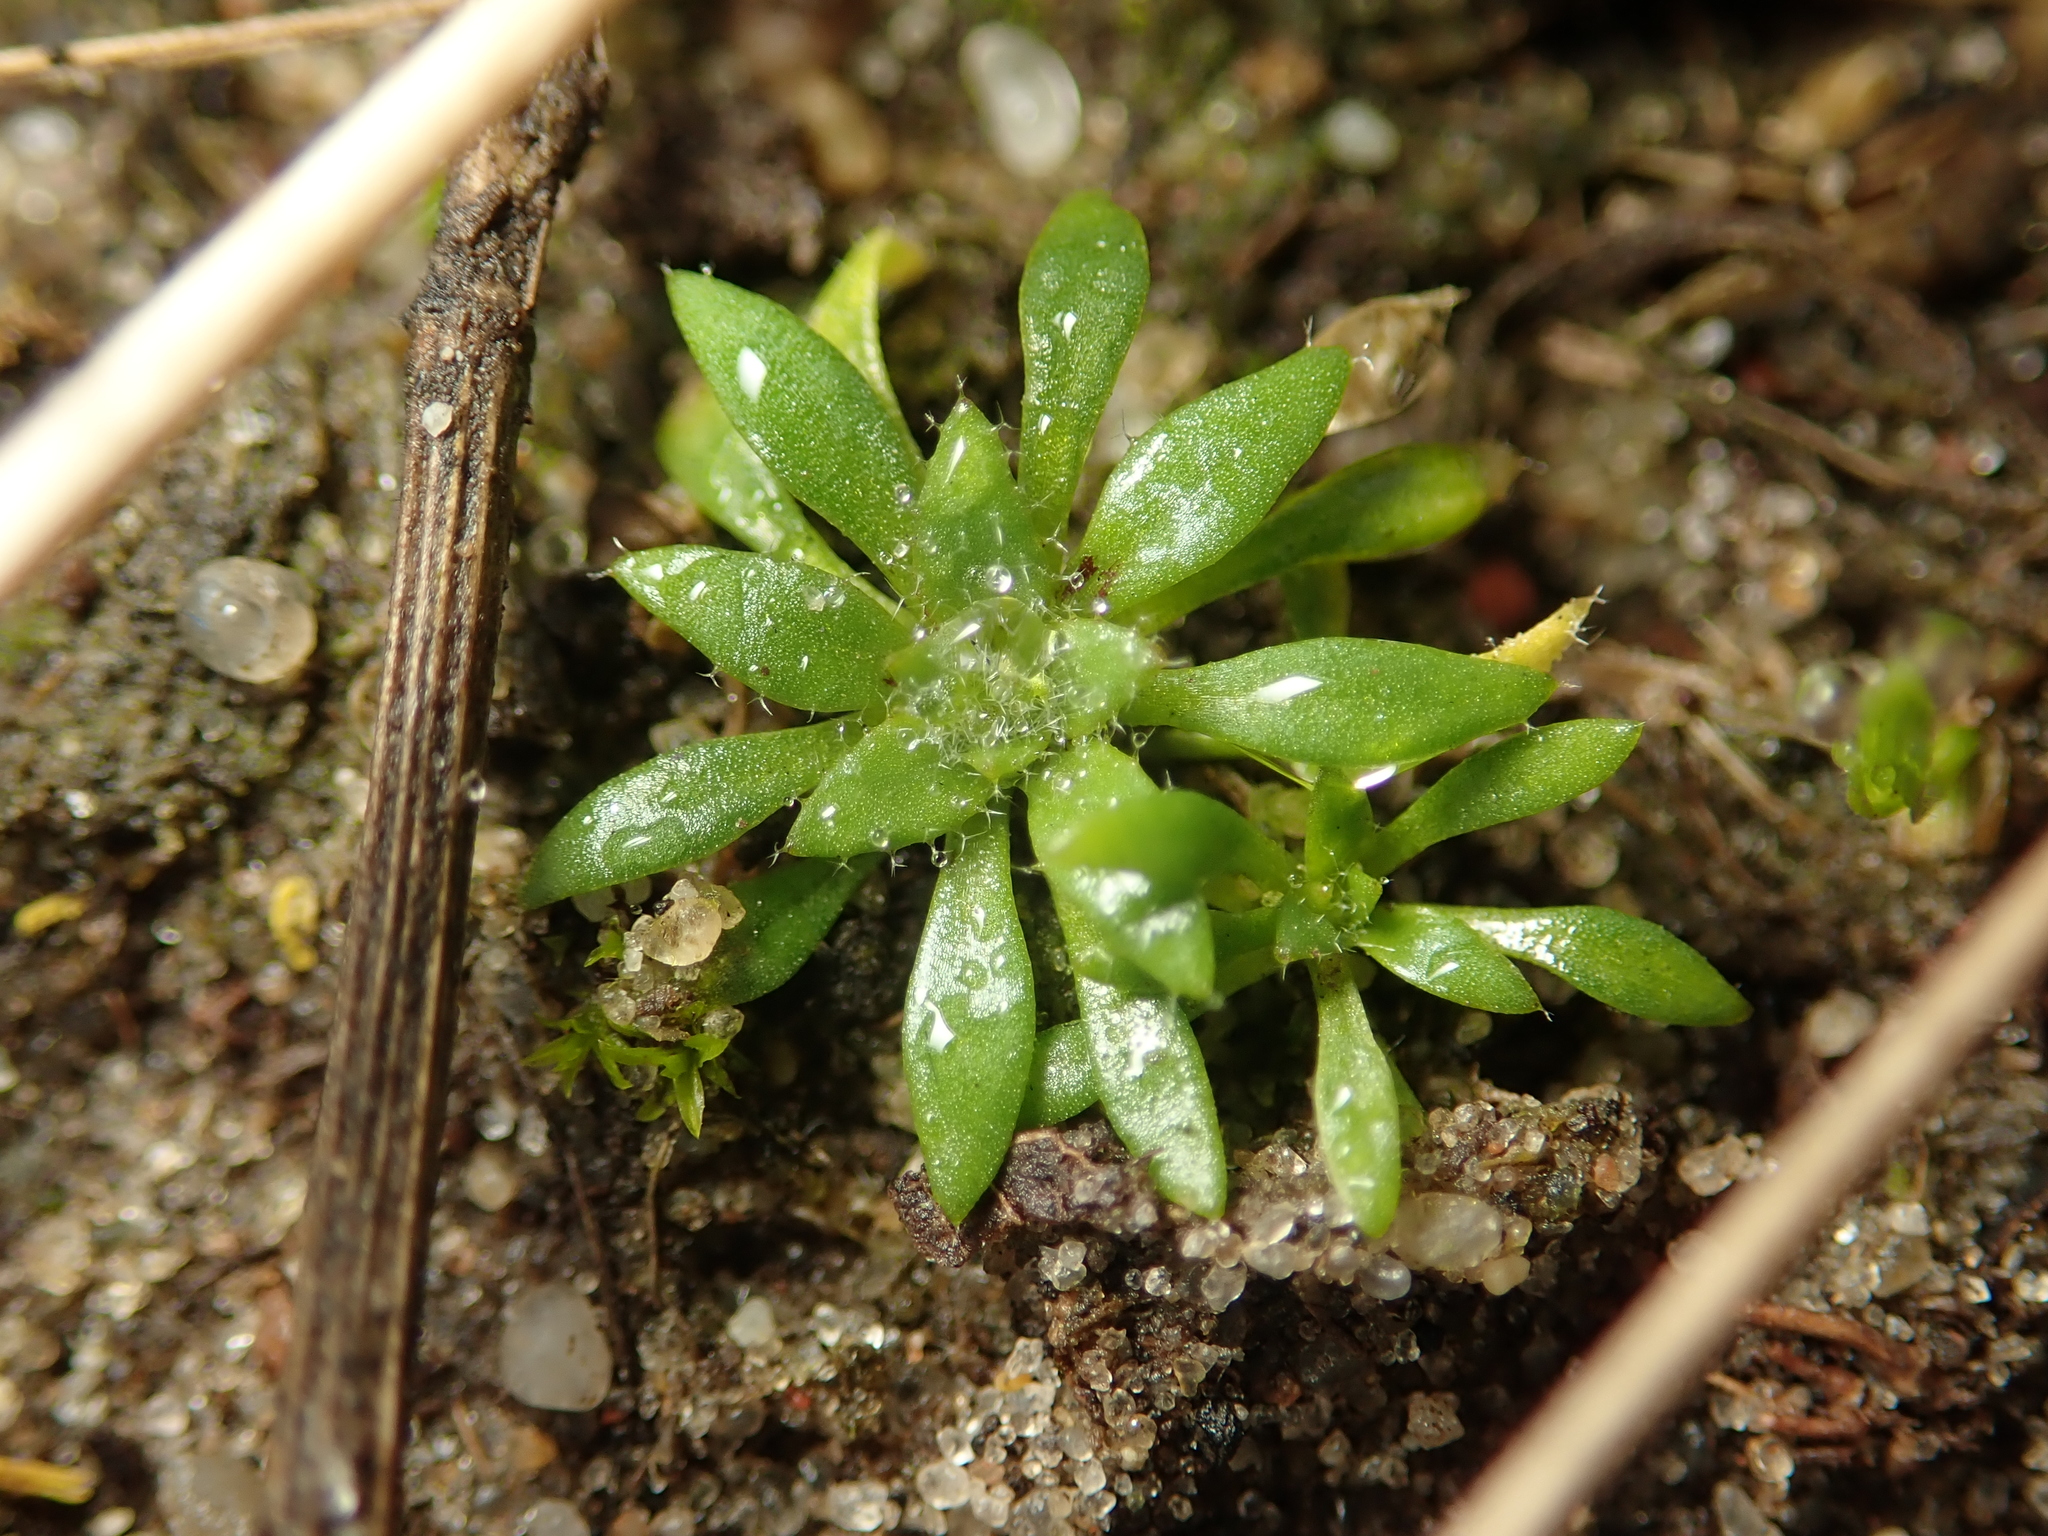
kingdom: Plantae
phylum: Tracheophyta
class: Magnoliopsida
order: Brassicales
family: Brassicaceae
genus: Draba
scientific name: Draba verna
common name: Spring draba
